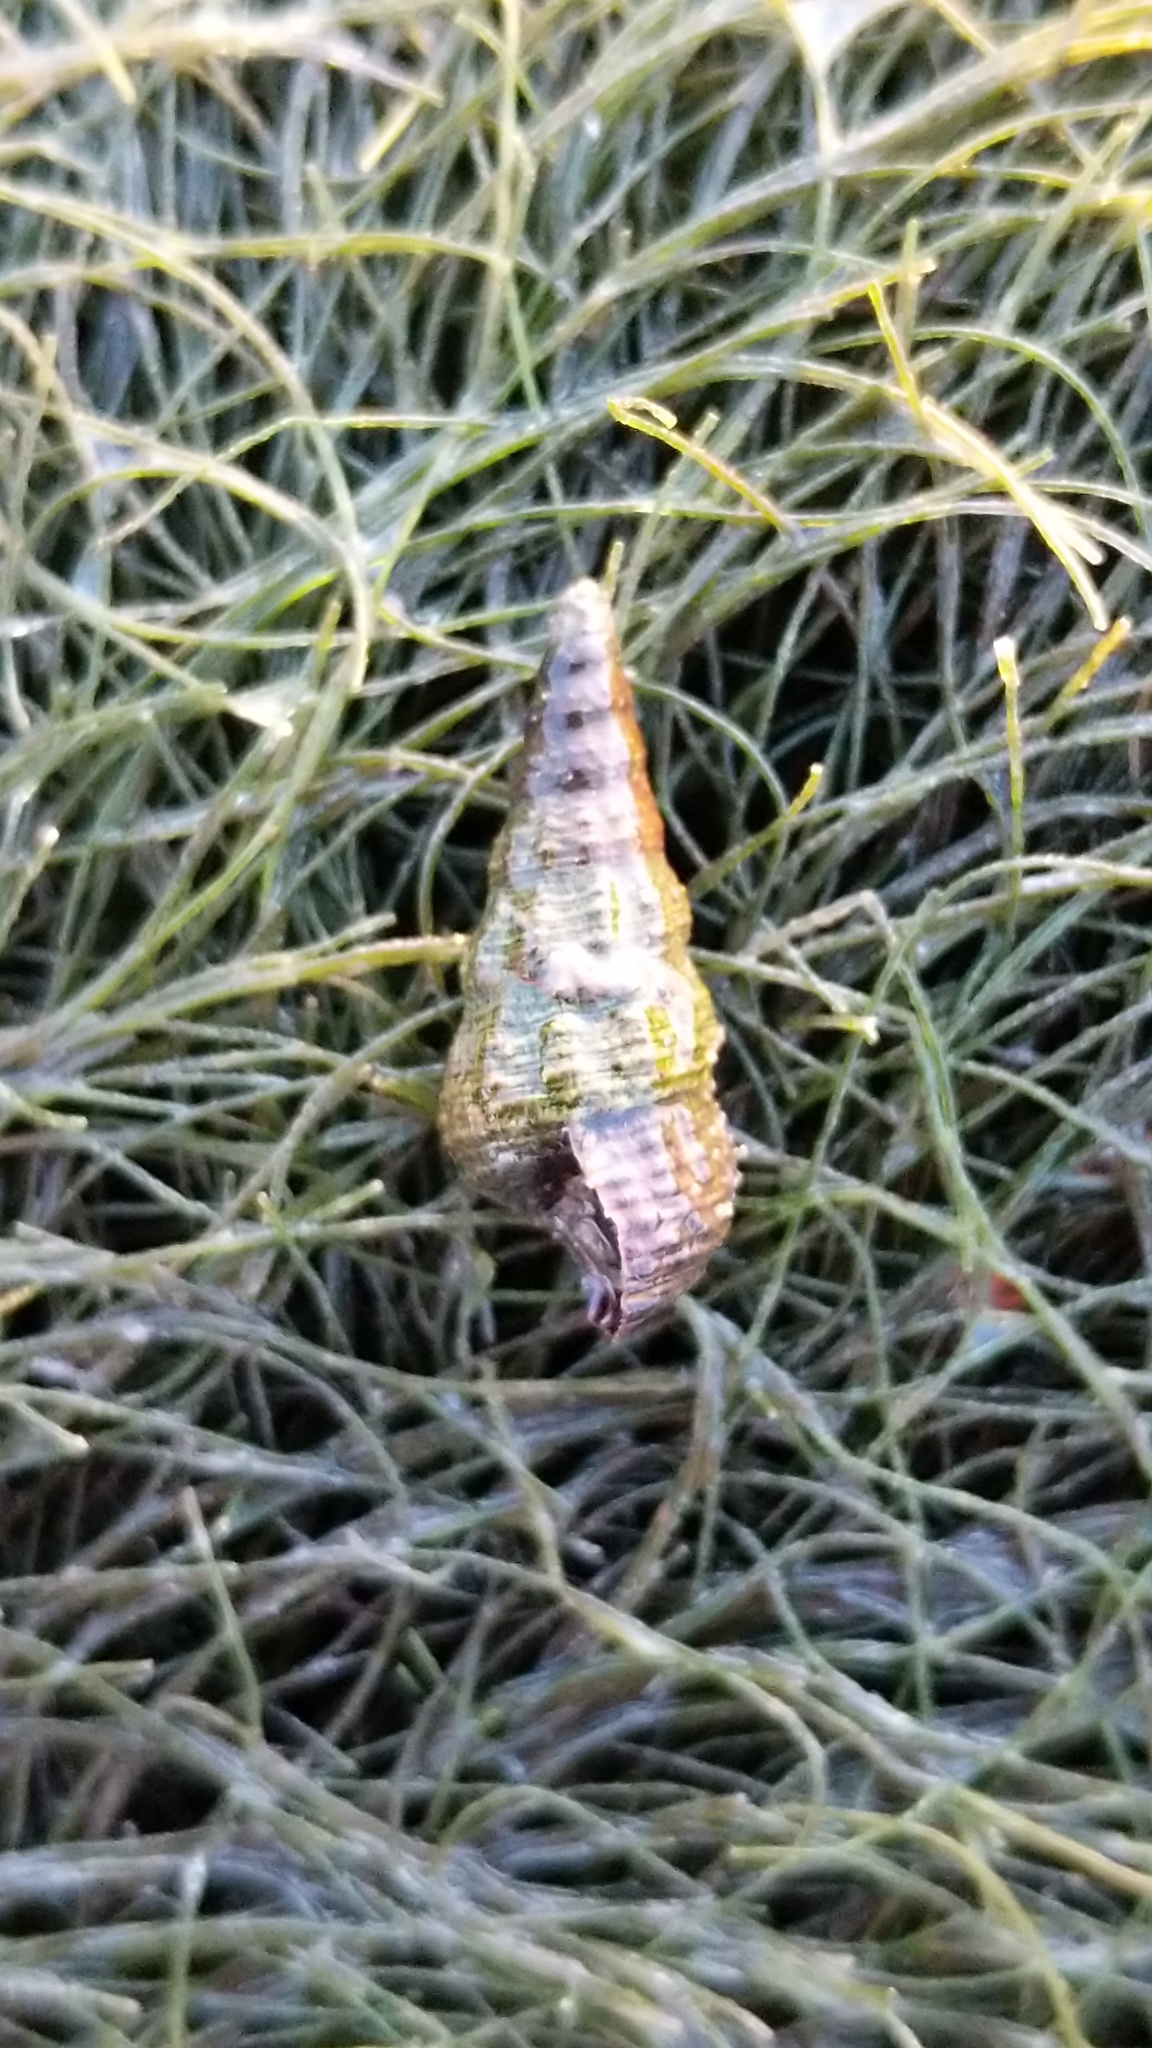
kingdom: Animalia
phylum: Mollusca
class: Gastropoda
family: Batillariidae
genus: Batillaria
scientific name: Batillaria attramentaria
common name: Japanese false cerith
